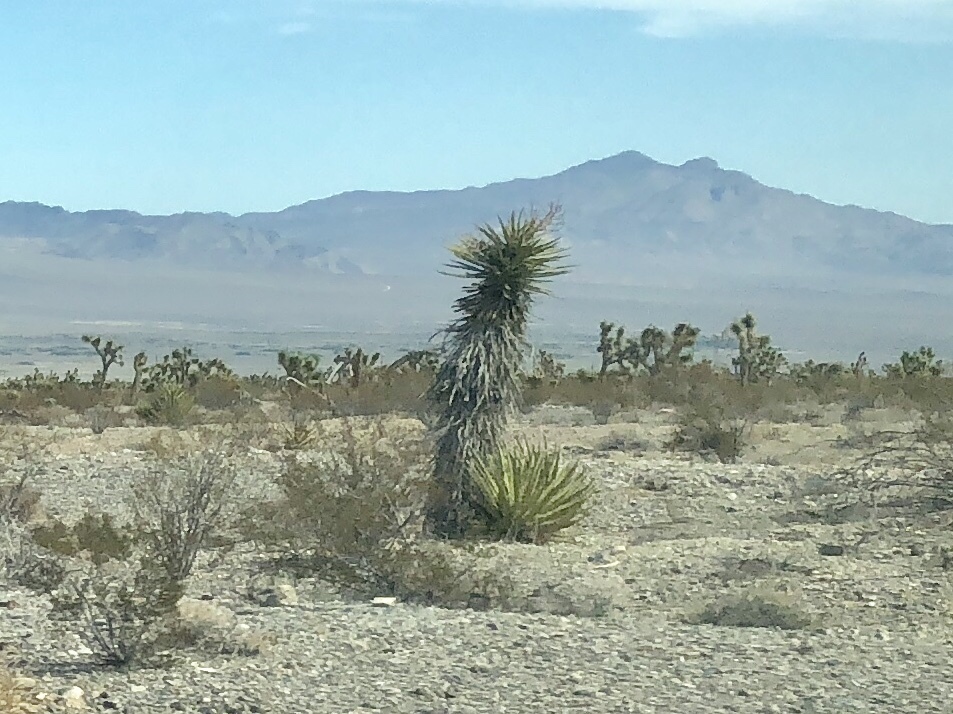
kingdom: Plantae
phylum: Tracheophyta
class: Liliopsida
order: Asparagales
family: Asparagaceae
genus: Yucca
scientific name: Yucca schidigera
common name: Mojave yucca
